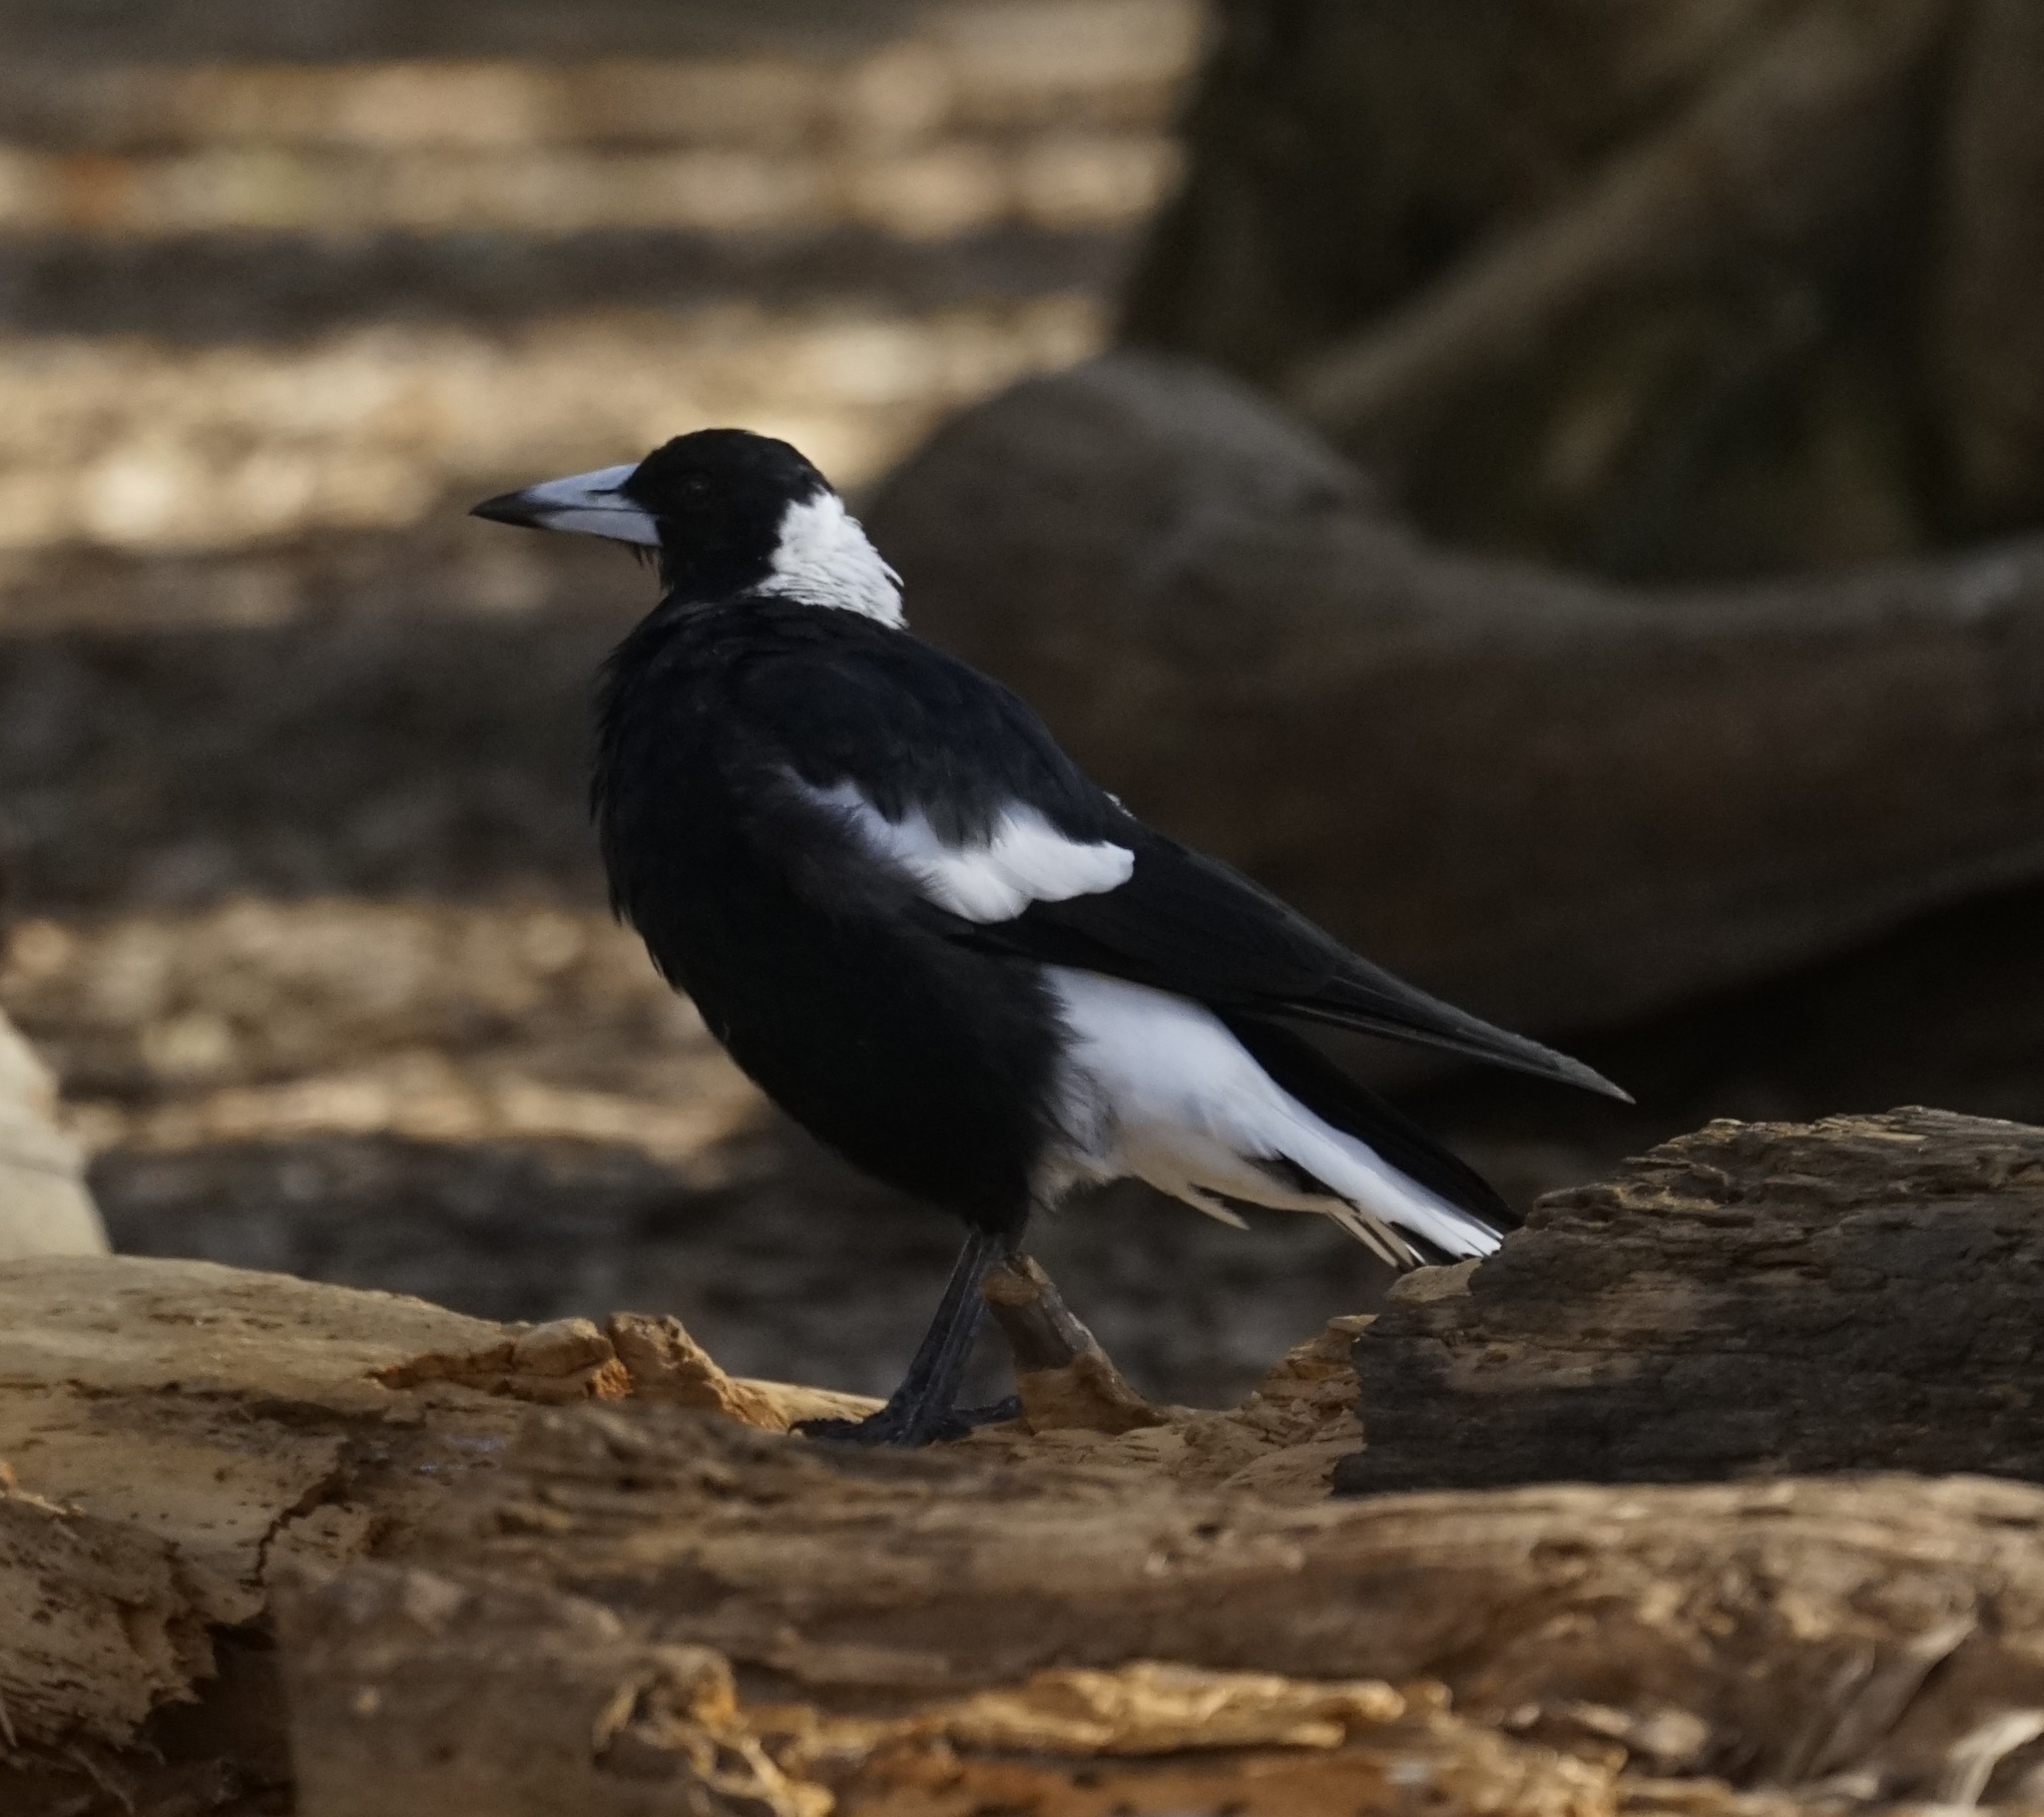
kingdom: Animalia
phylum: Chordata
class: Aves
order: Passeriformes
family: Cracticidae
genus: Gymnorhina
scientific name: Gymnorhina tibicen
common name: Australian magpie
